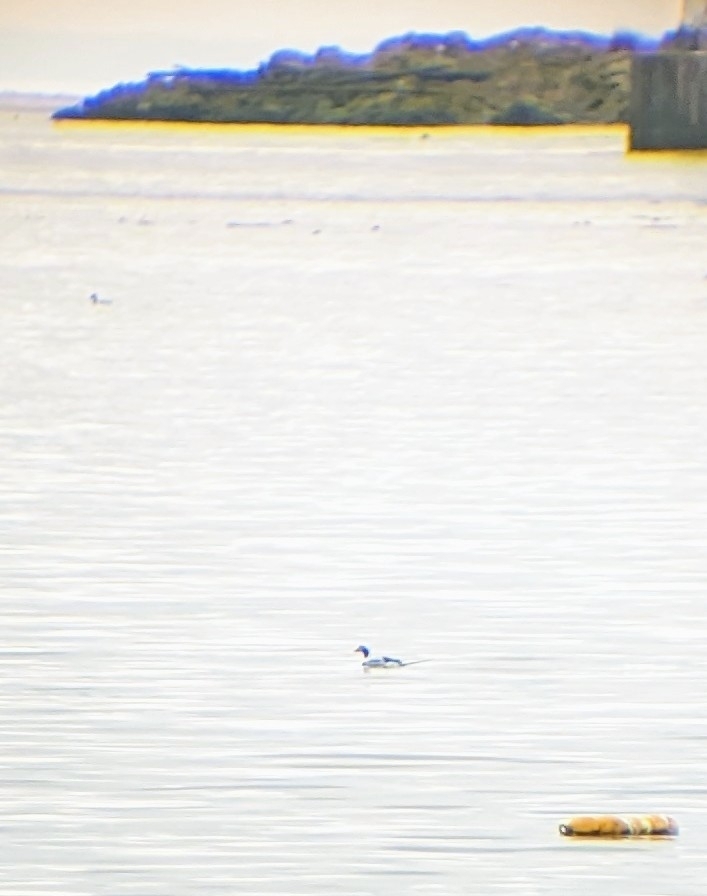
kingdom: Animalia
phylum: Chordata
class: Aves
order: Anseriformes
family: Anatidae
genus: Clangula
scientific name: Clangula hyemalis
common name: Long-tailed duck
